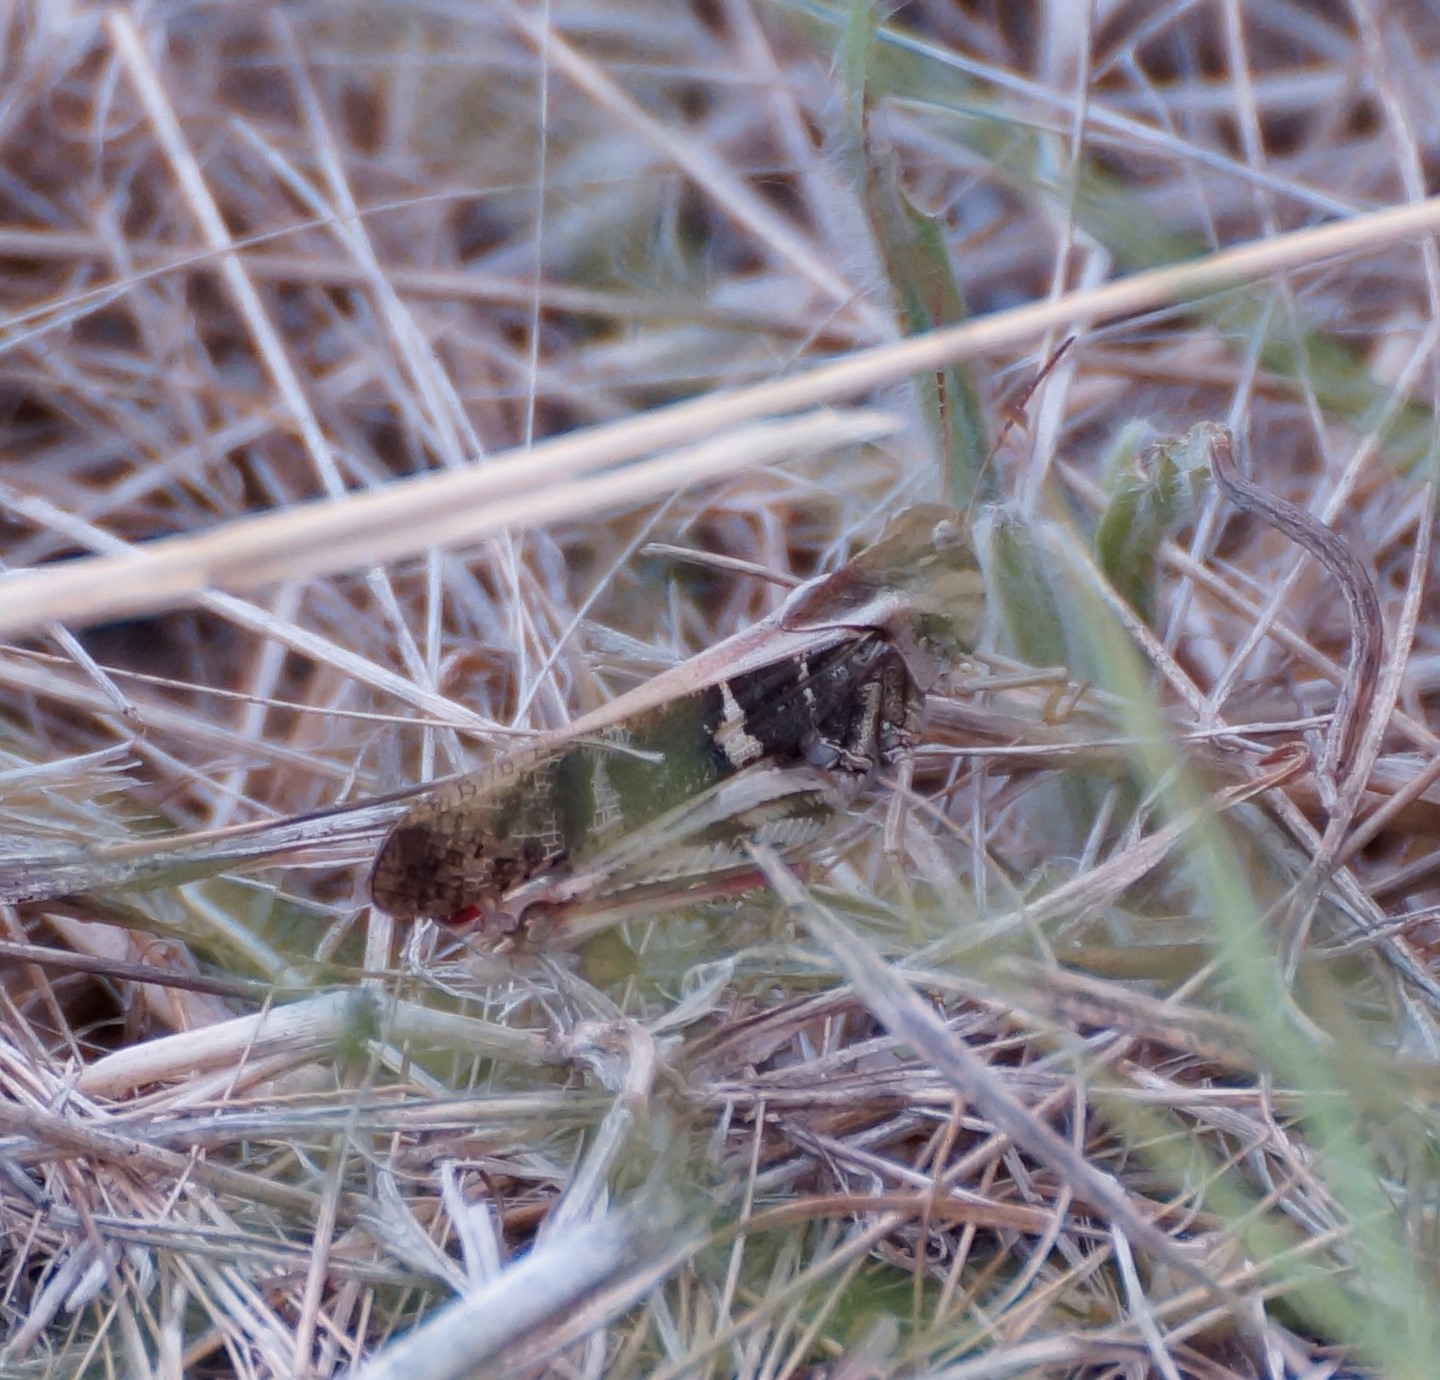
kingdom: Animalia
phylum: Arthropoda
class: Insecta
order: Orthoptera
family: Acrididae
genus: Gastrimargus
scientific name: Gastrimargus musicus
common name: Yellow-winged locust
